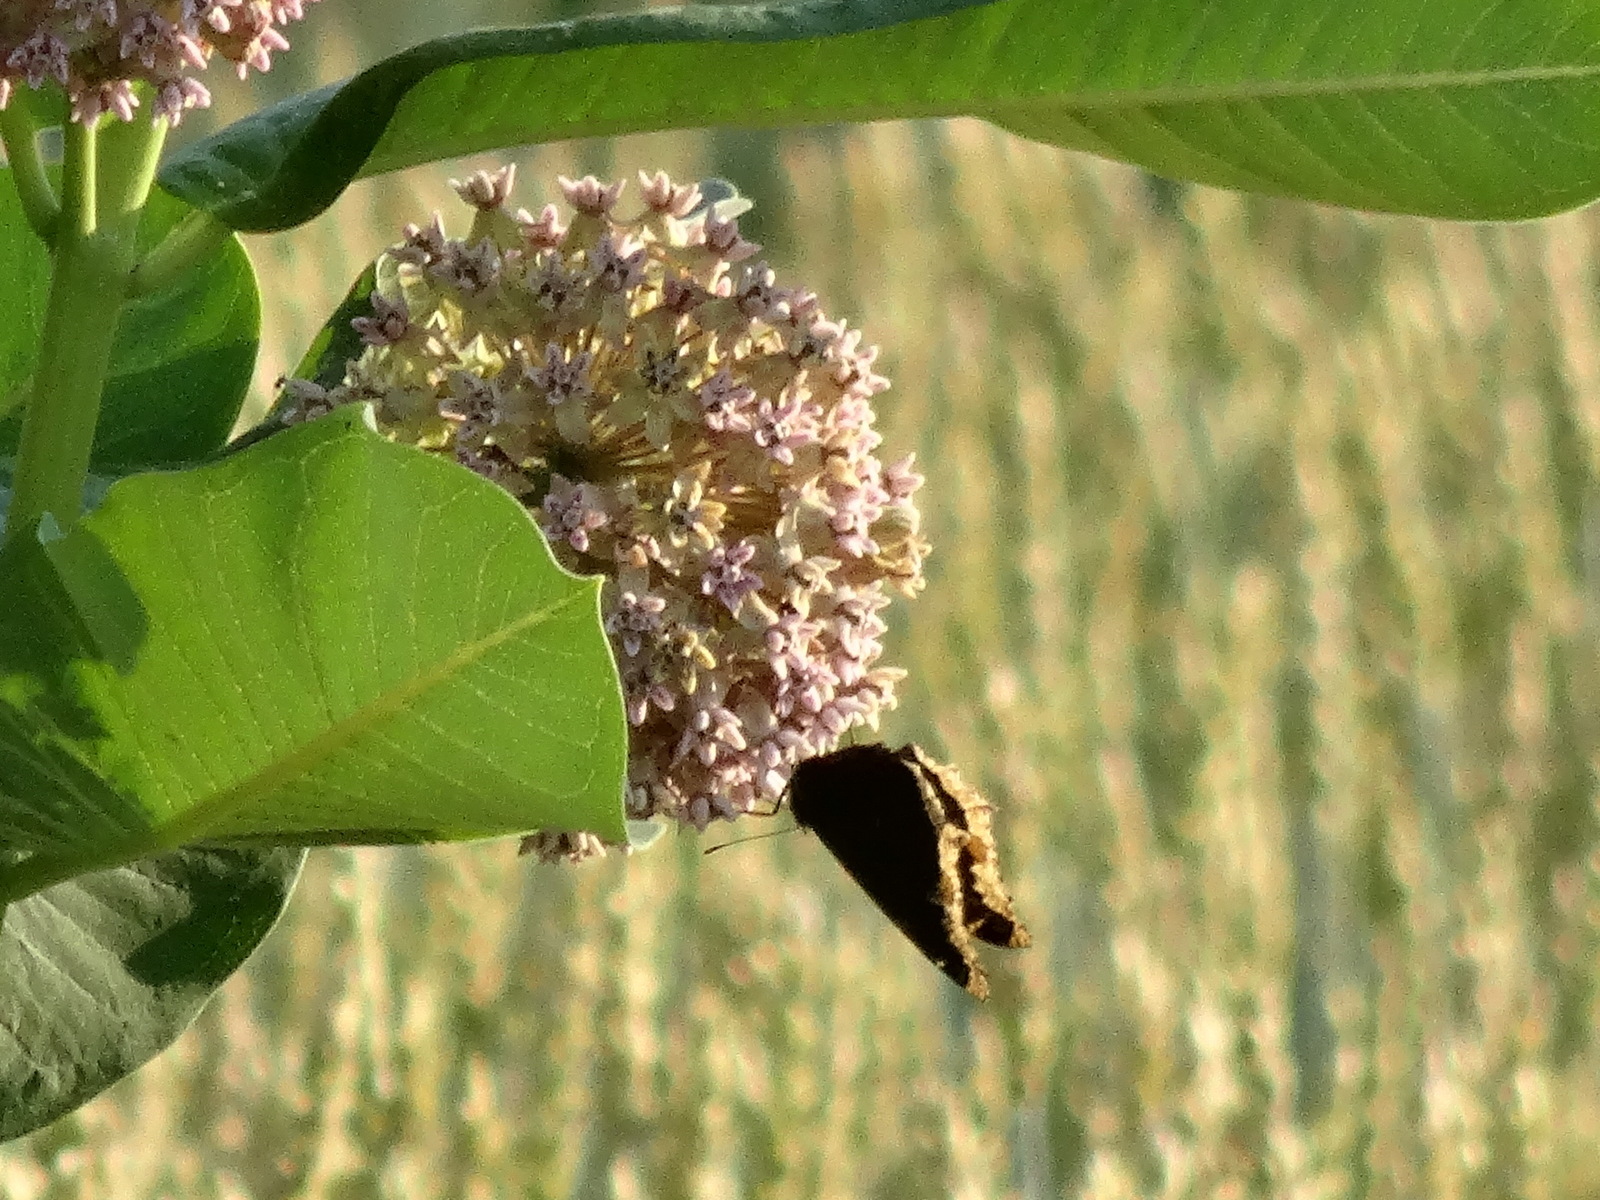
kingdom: Animalia
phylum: Arthropoda
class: Insecta
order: Lepidoptera
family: Nymphalidae
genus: Nymphalis
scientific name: Nymphalis antiopa
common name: Camberwell beauty
